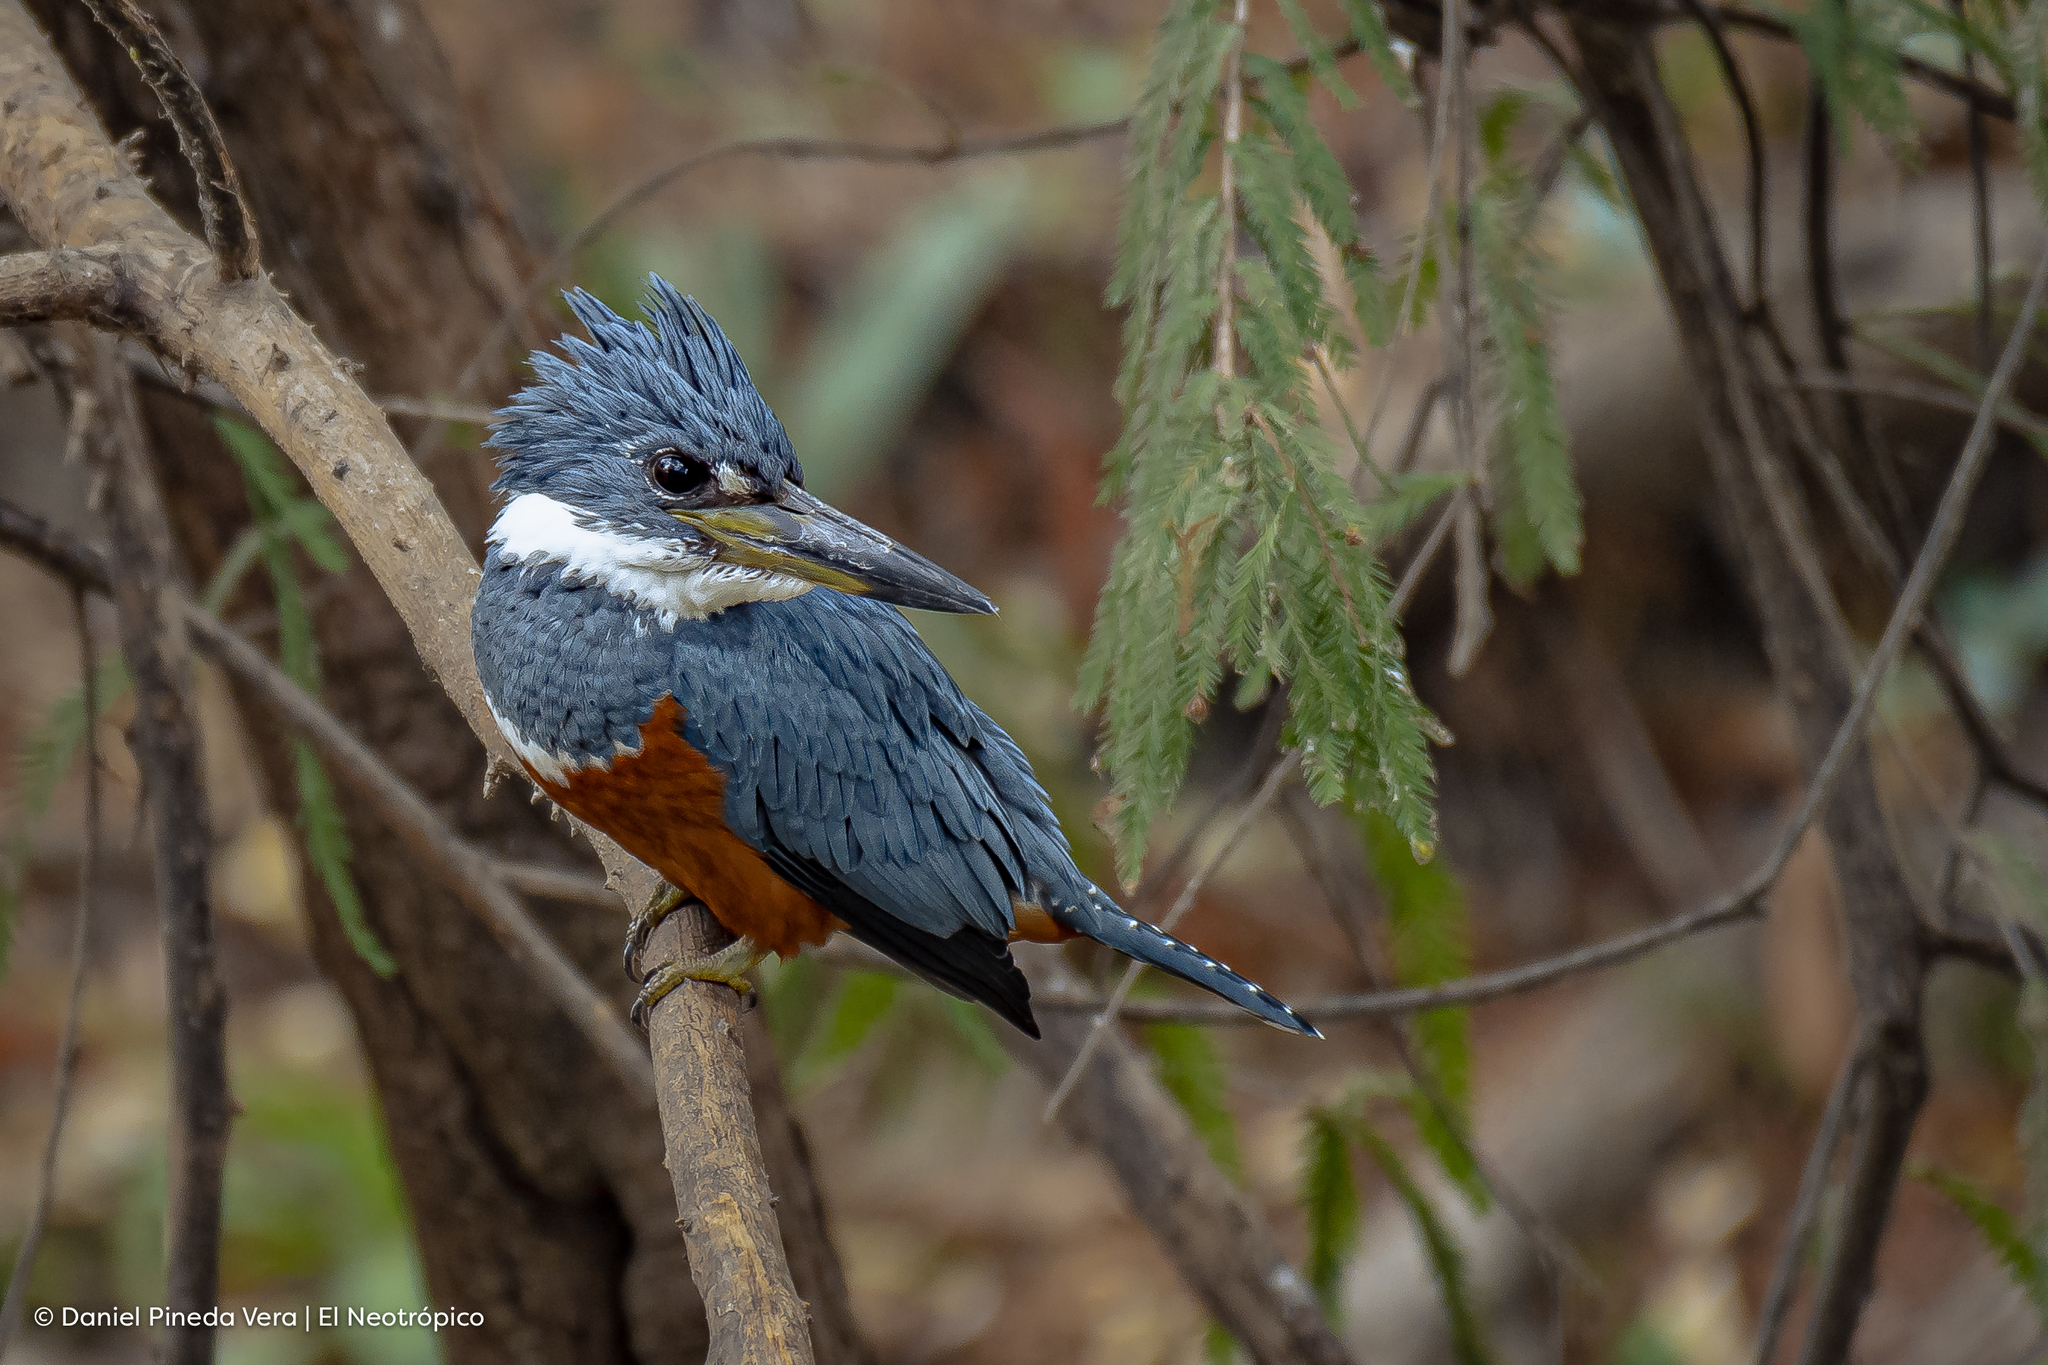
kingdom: Animalia
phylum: Chordata
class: Aves
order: Coraciiformes
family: Alcedinidae
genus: Megaceryle
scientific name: Megaceryle torquata
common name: Ringed kingfisher
